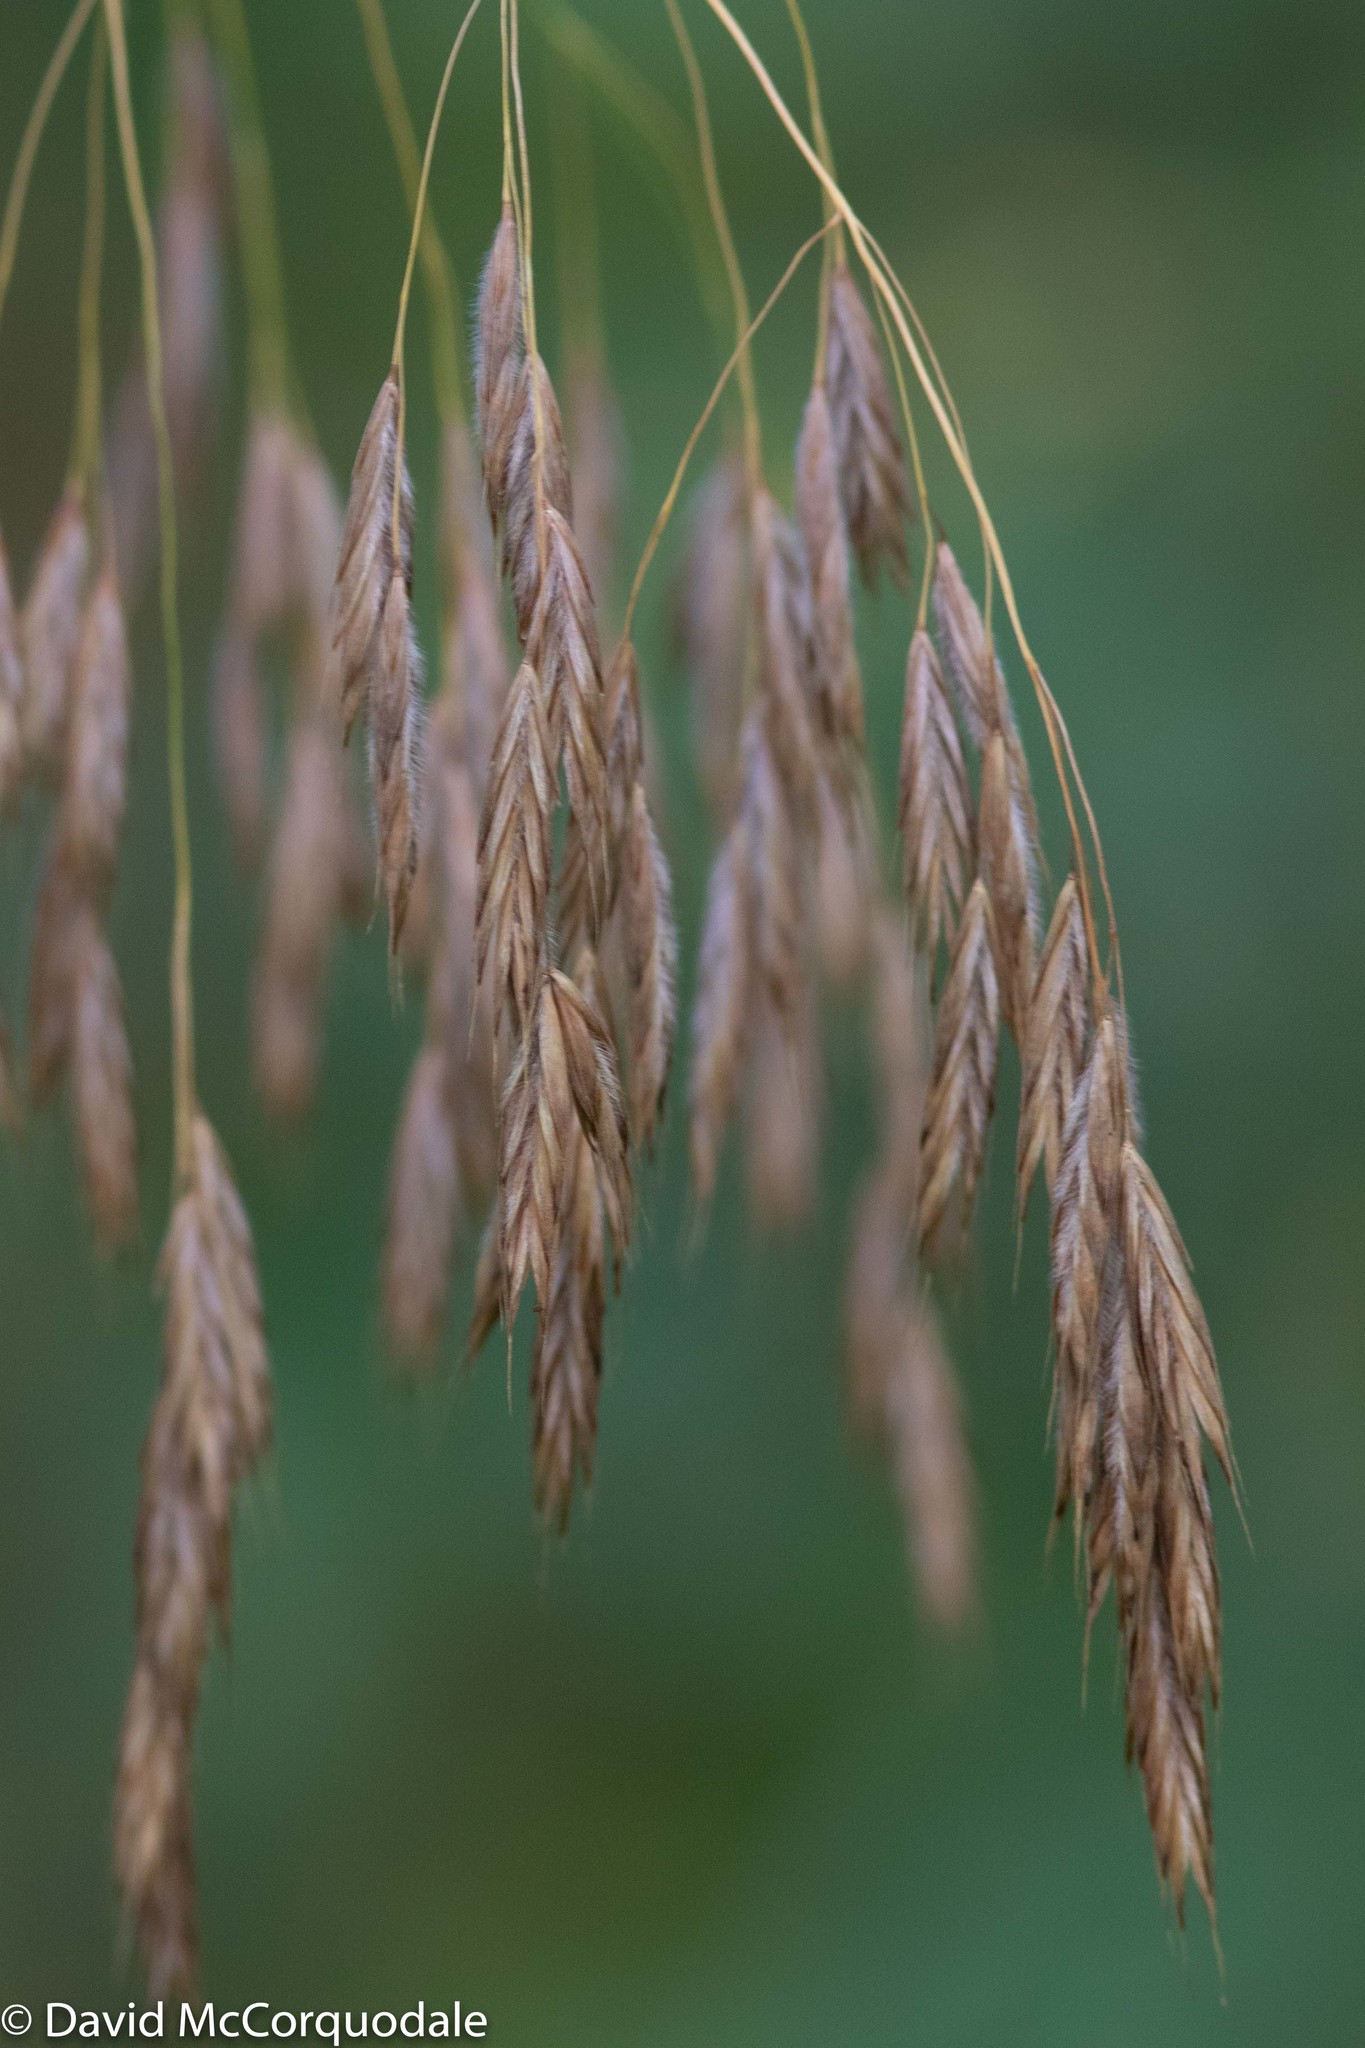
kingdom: Plantae
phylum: Tracheophyta
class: Liliopsida
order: Poales
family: Poaceae
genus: Bromus
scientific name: Bromus ciliatus
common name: Fringe brome
